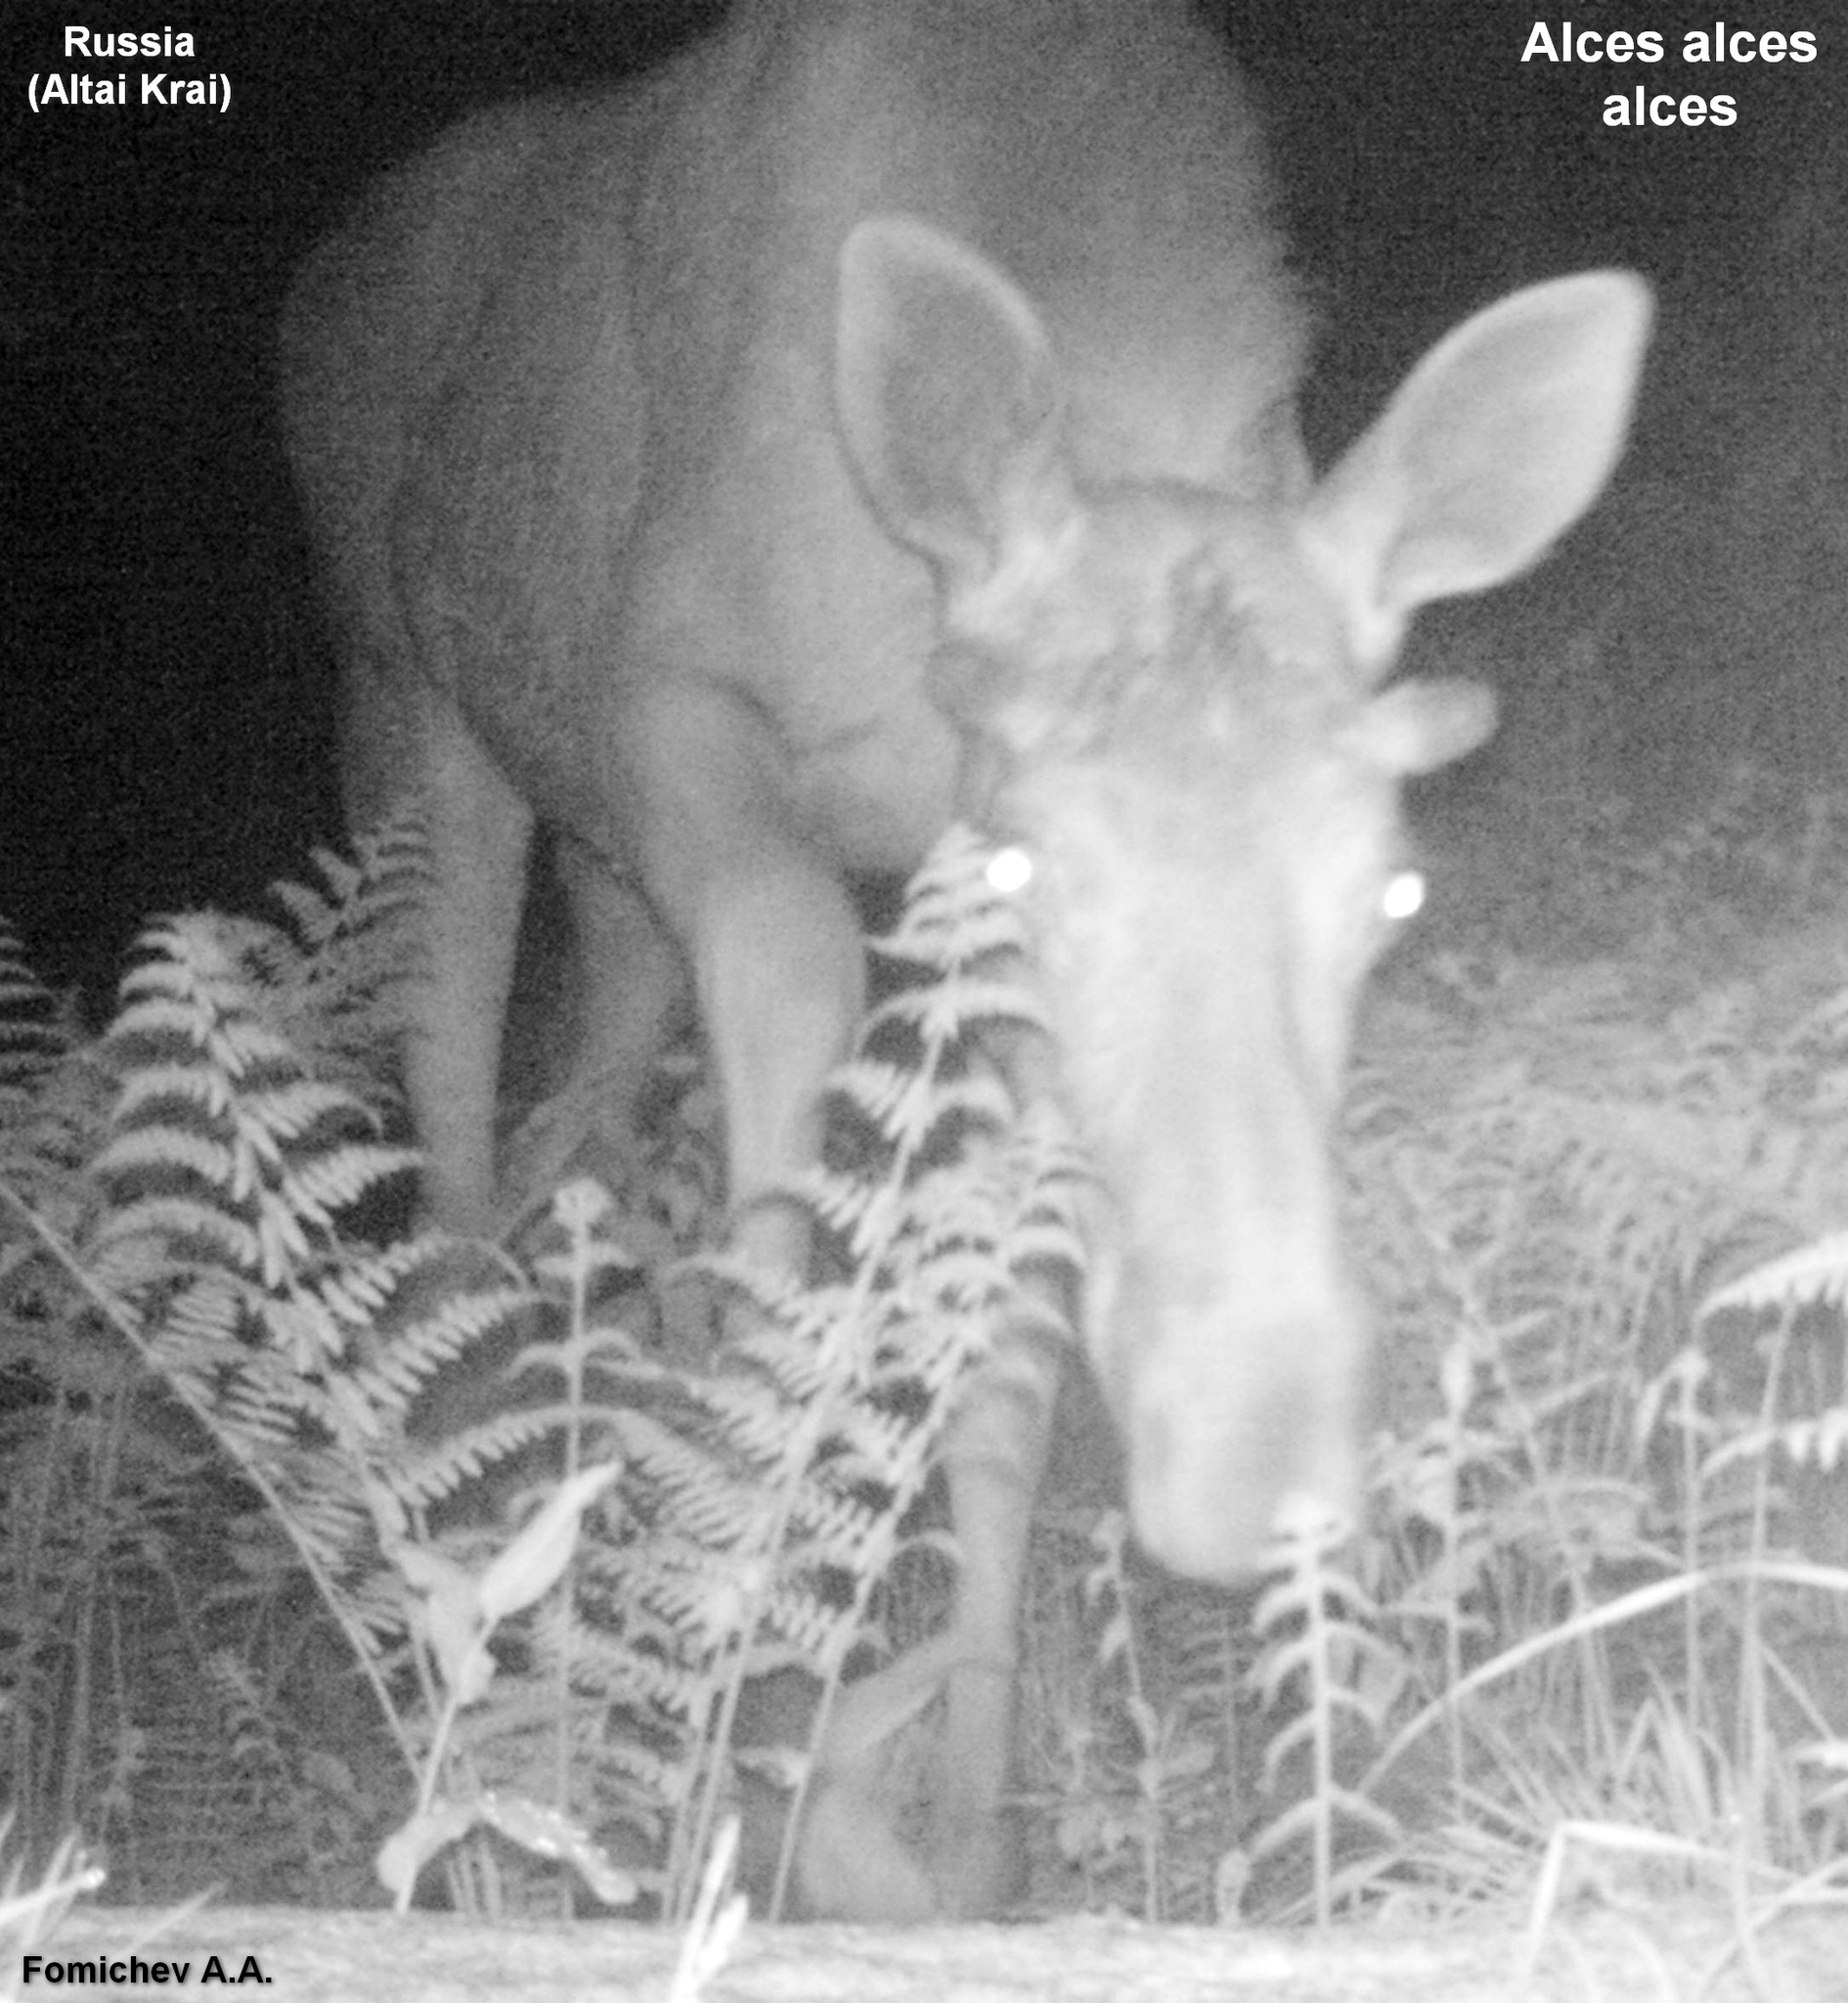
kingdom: Animalia
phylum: Chordata
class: Mammalia
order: Artiodactyla
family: Cervidae
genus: Alces
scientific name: Alces alces
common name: Moose
